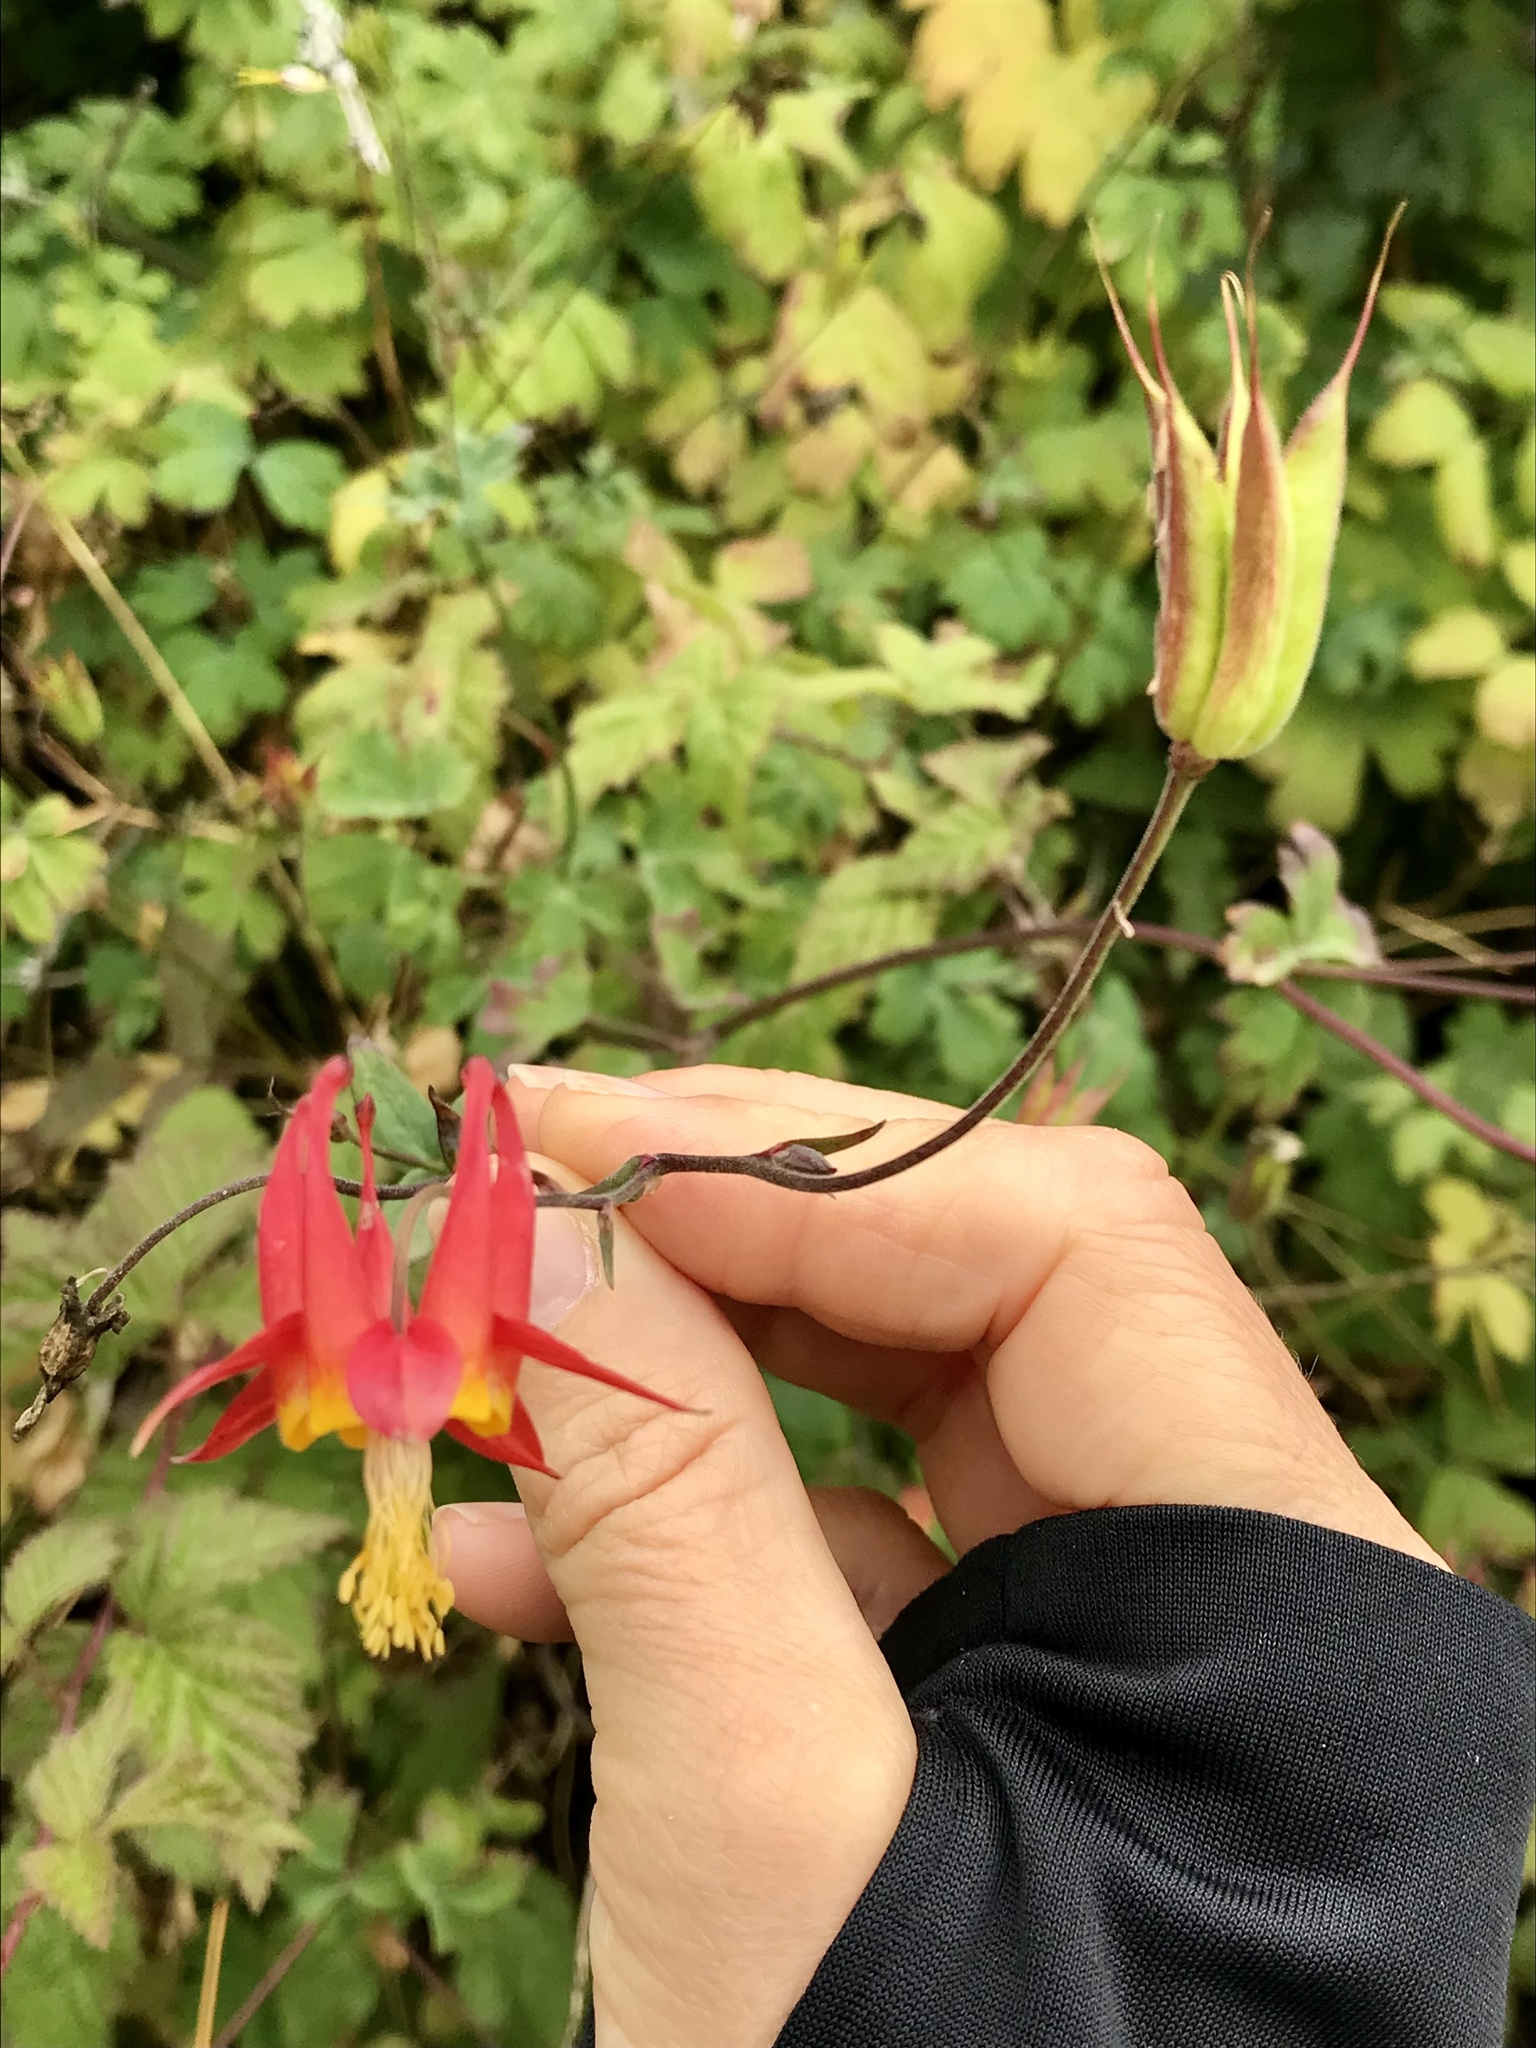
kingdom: Plantae
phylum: Tracheophyta
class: Magnoliopsida
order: Ranunculales
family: Ranunculaceae
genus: Aquilegia
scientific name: Aquilegia formosa
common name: Sitka columbine
